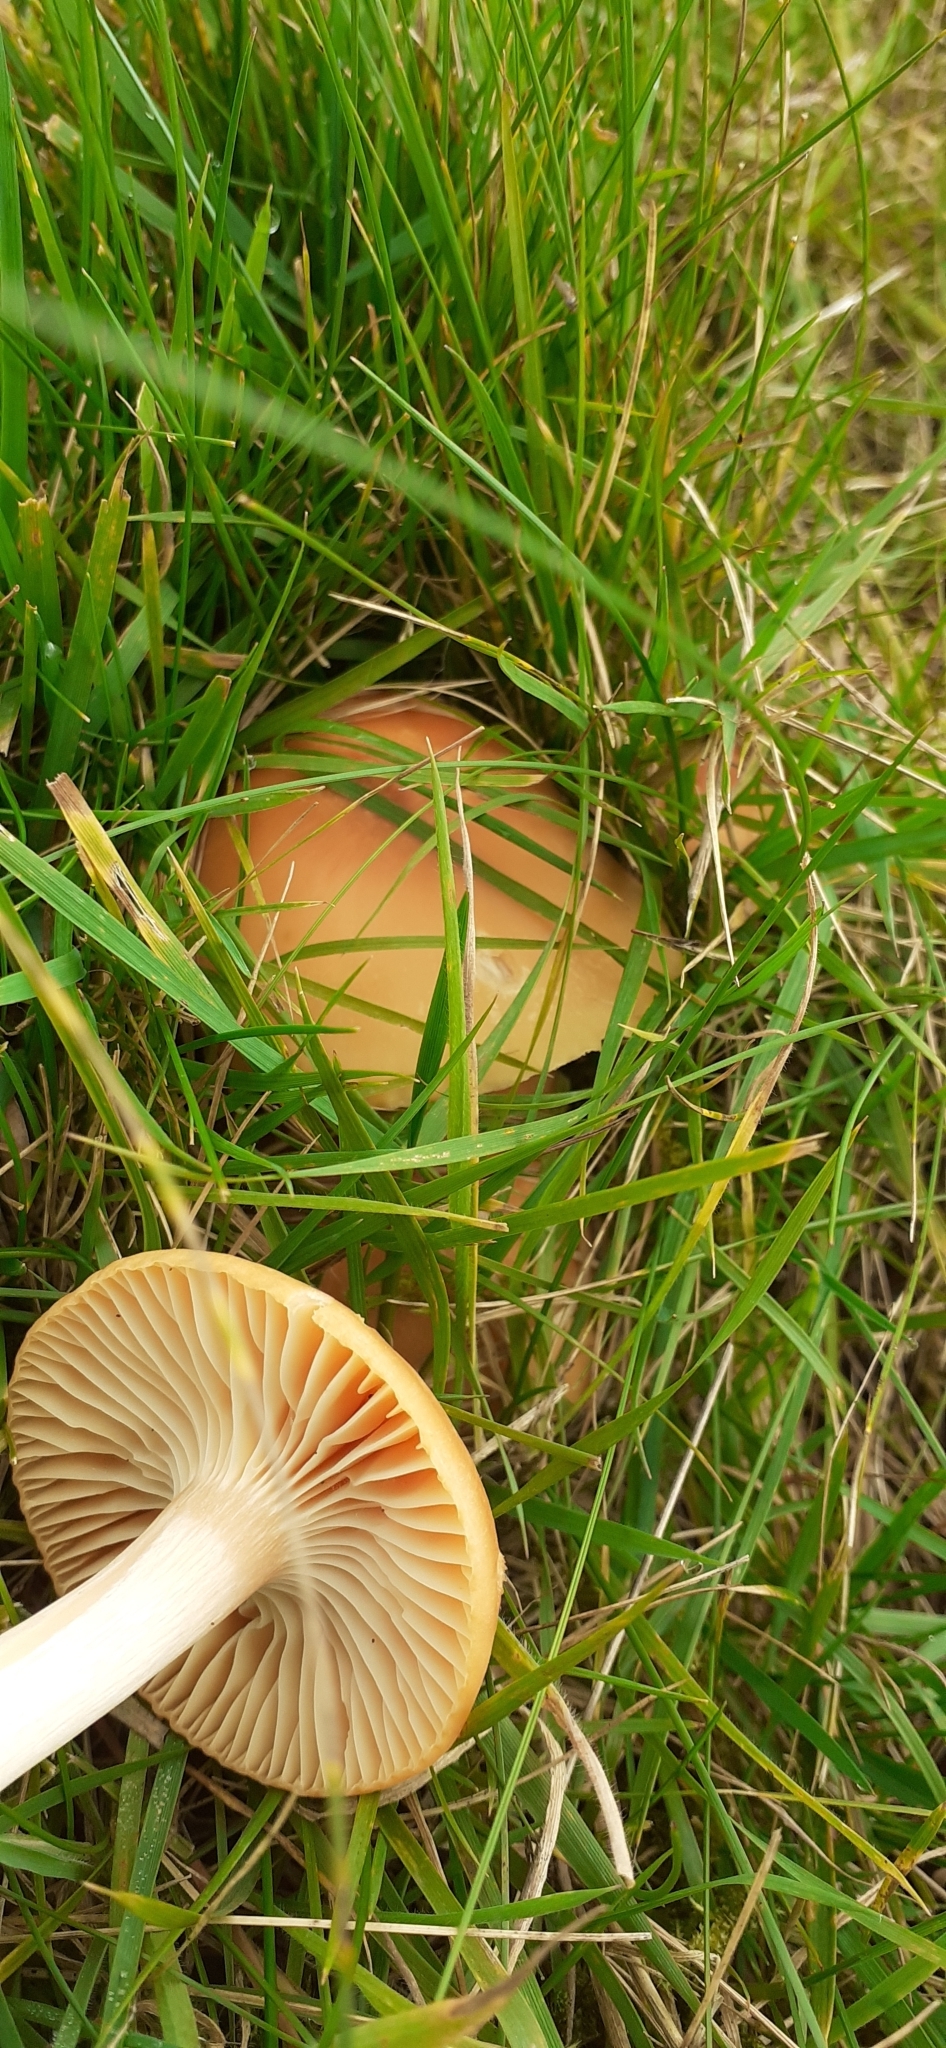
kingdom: Fungi
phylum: Basidiomycota
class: Agaricomycetes
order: Agaricales
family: Hygrophoraceae
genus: Cuphophyllus
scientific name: Cuphophyllus pratensis
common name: Meadow waxcap
